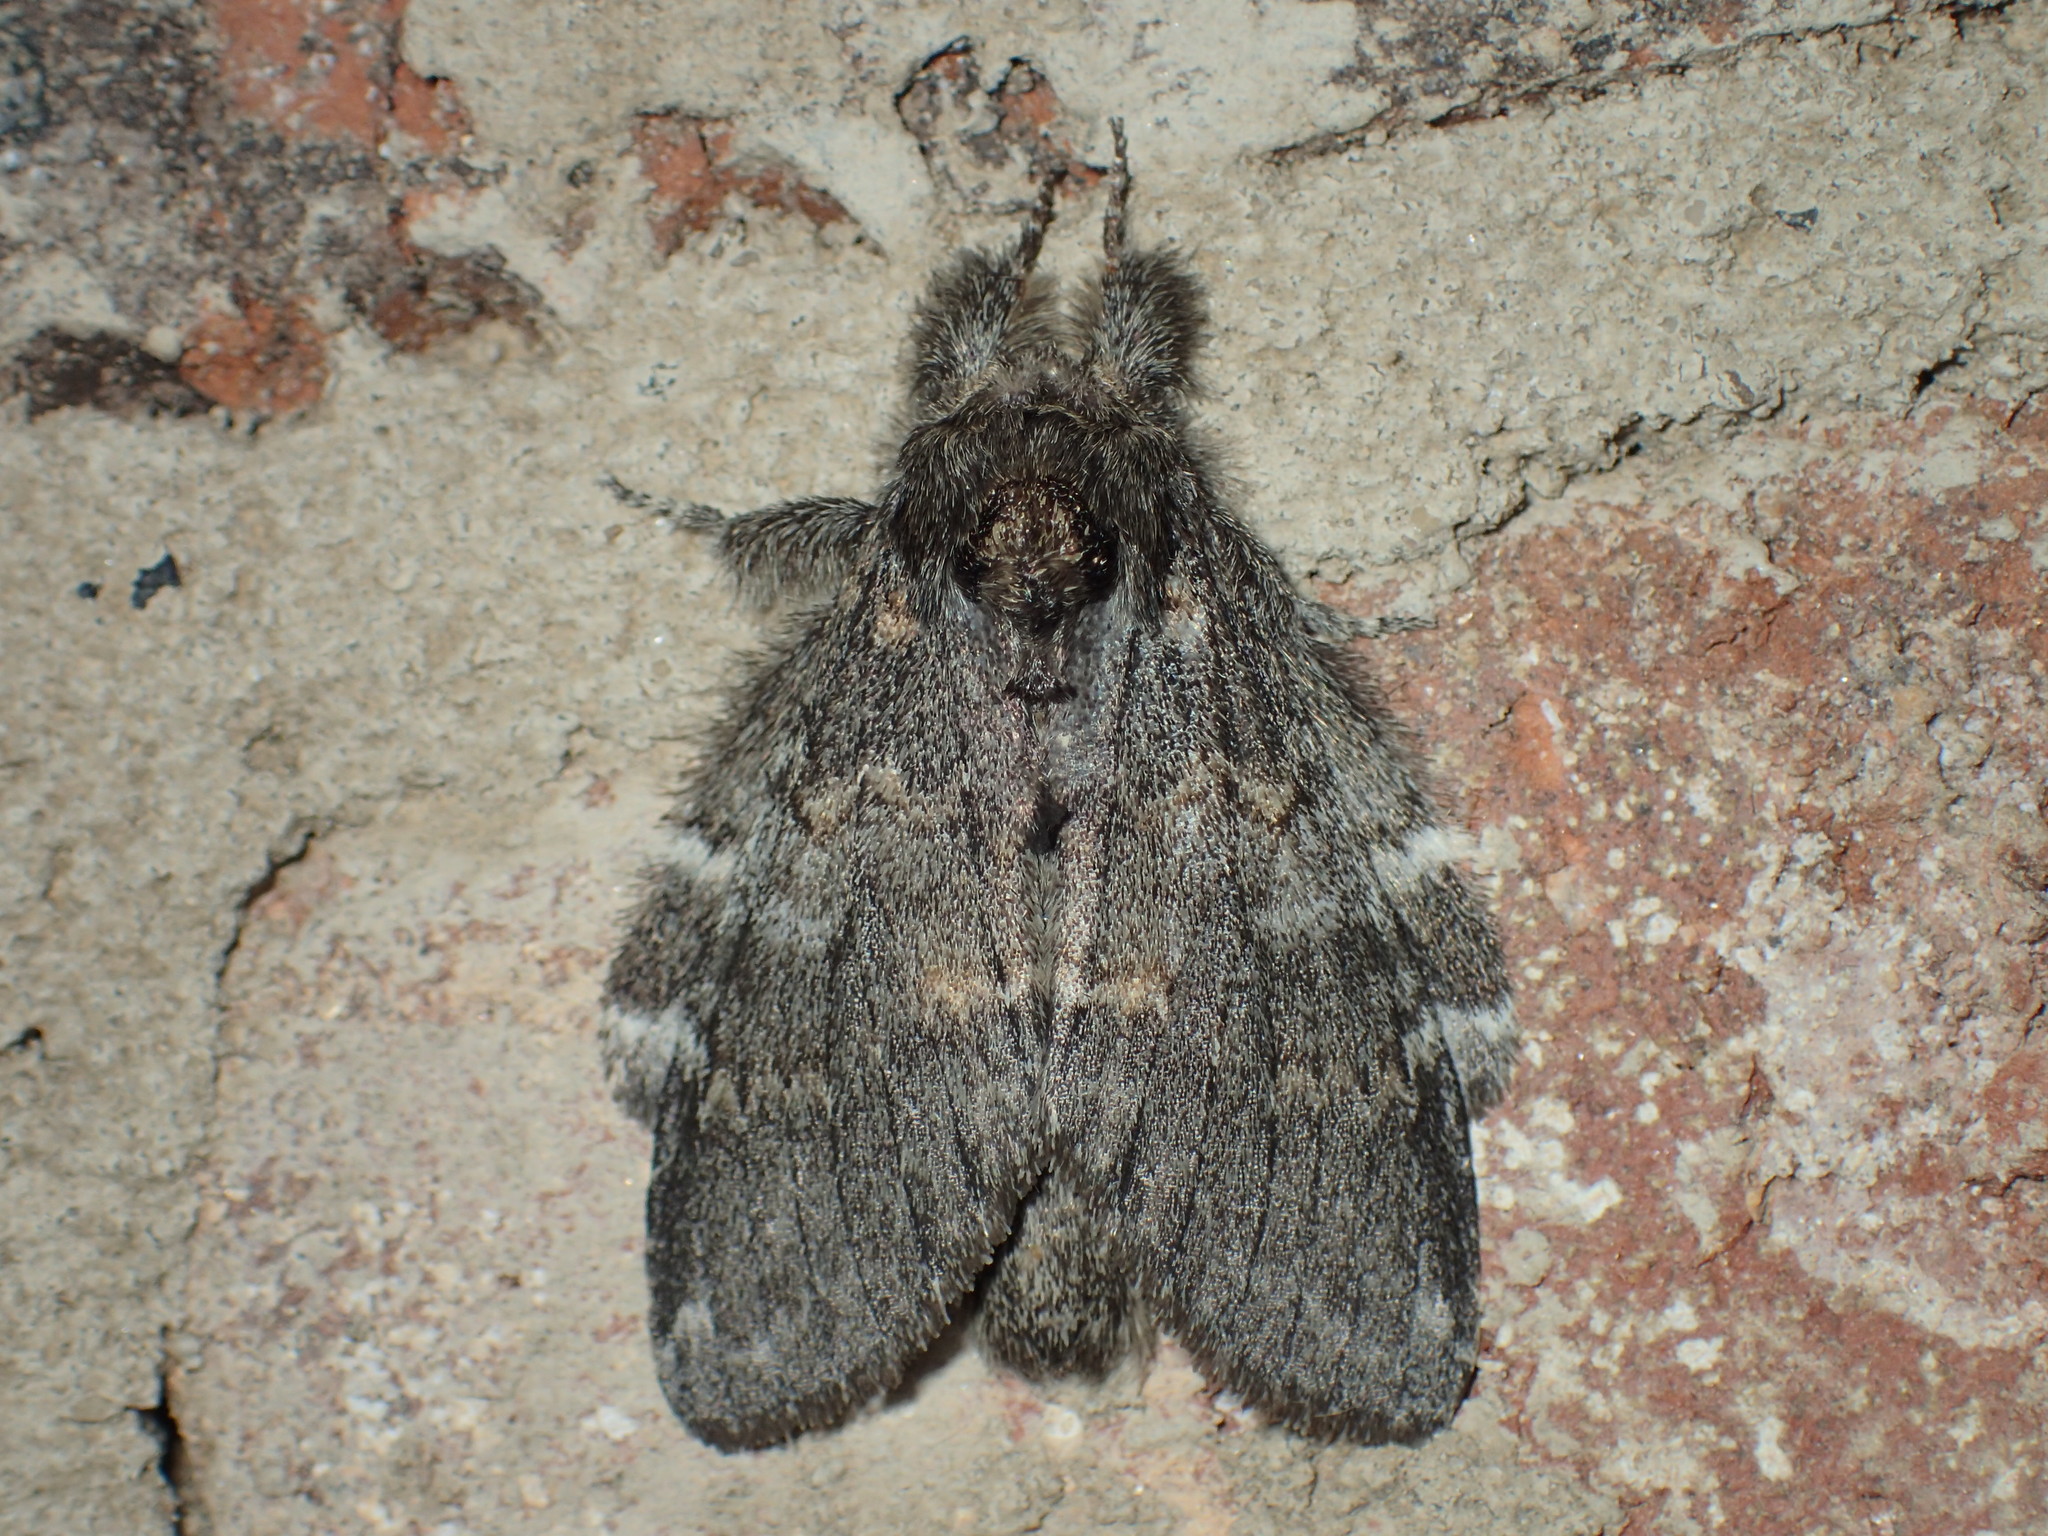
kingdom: Animalia
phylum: Arthropoda
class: Insecta
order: Lepidoptera
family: Notodontidae
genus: Peridea
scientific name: Peridea angulosa
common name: Angulose prominent
